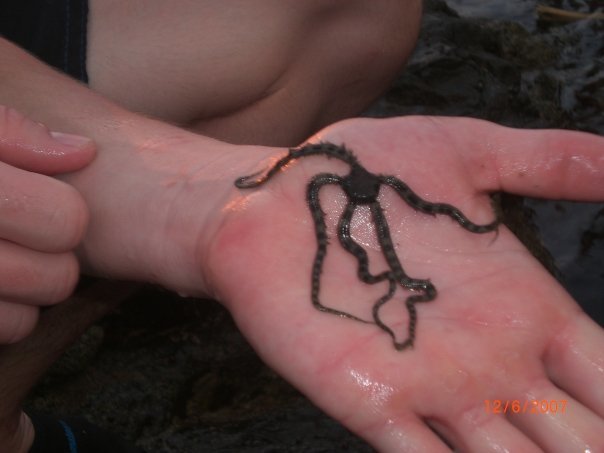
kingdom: Animalia
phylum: Echinodermata
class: Ophiuroidea
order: Ophiacanthida
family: Ophiocomidae
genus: Ophiocomella
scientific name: Ophiocomella alexandri
